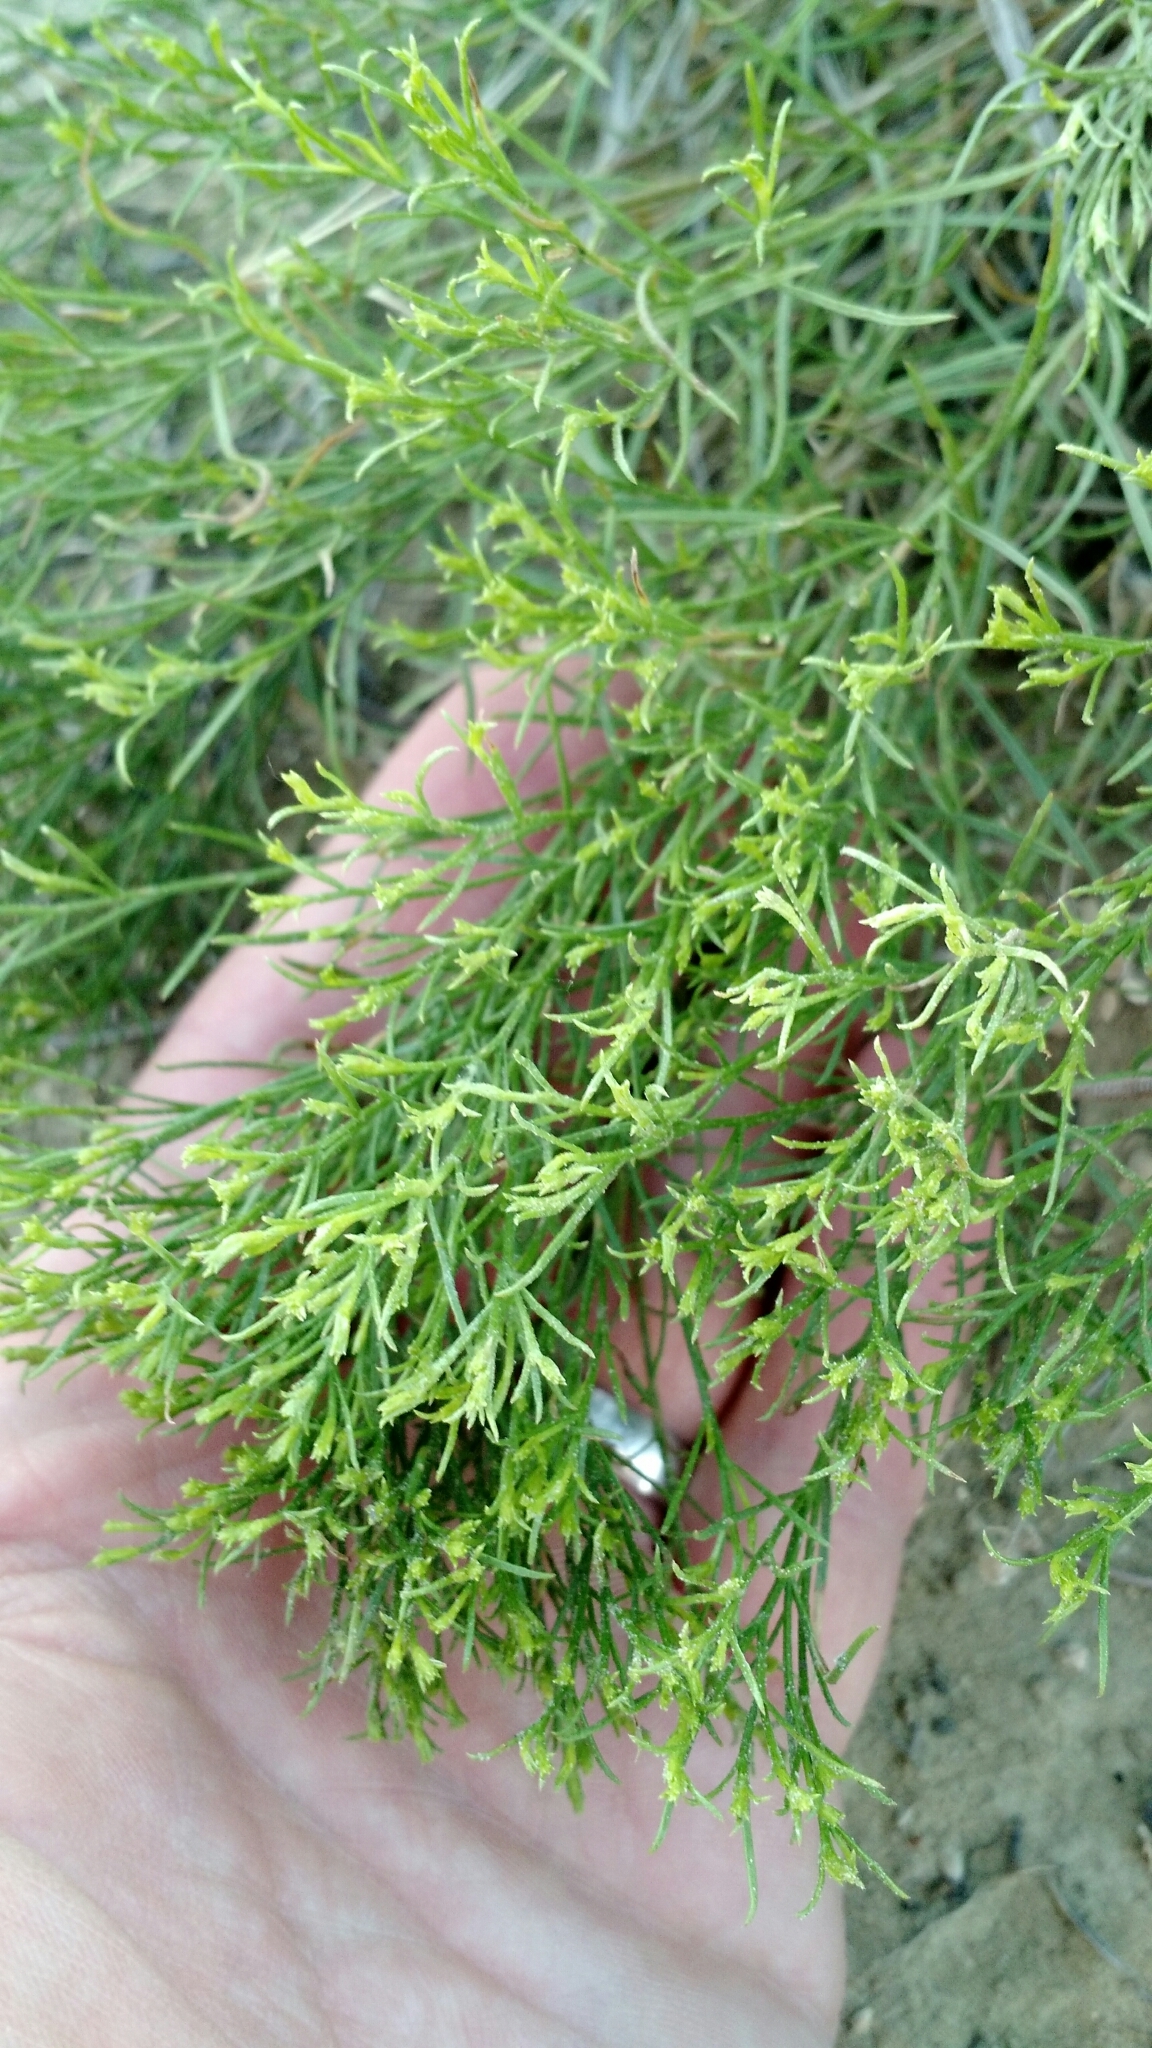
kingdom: Plantae
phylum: Tracheophyta
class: Magnoliopsida
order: Asterales
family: Asteraceae
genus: Gutierrezia
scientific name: Gutierrezia sarothrae
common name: Broom snakeweed
